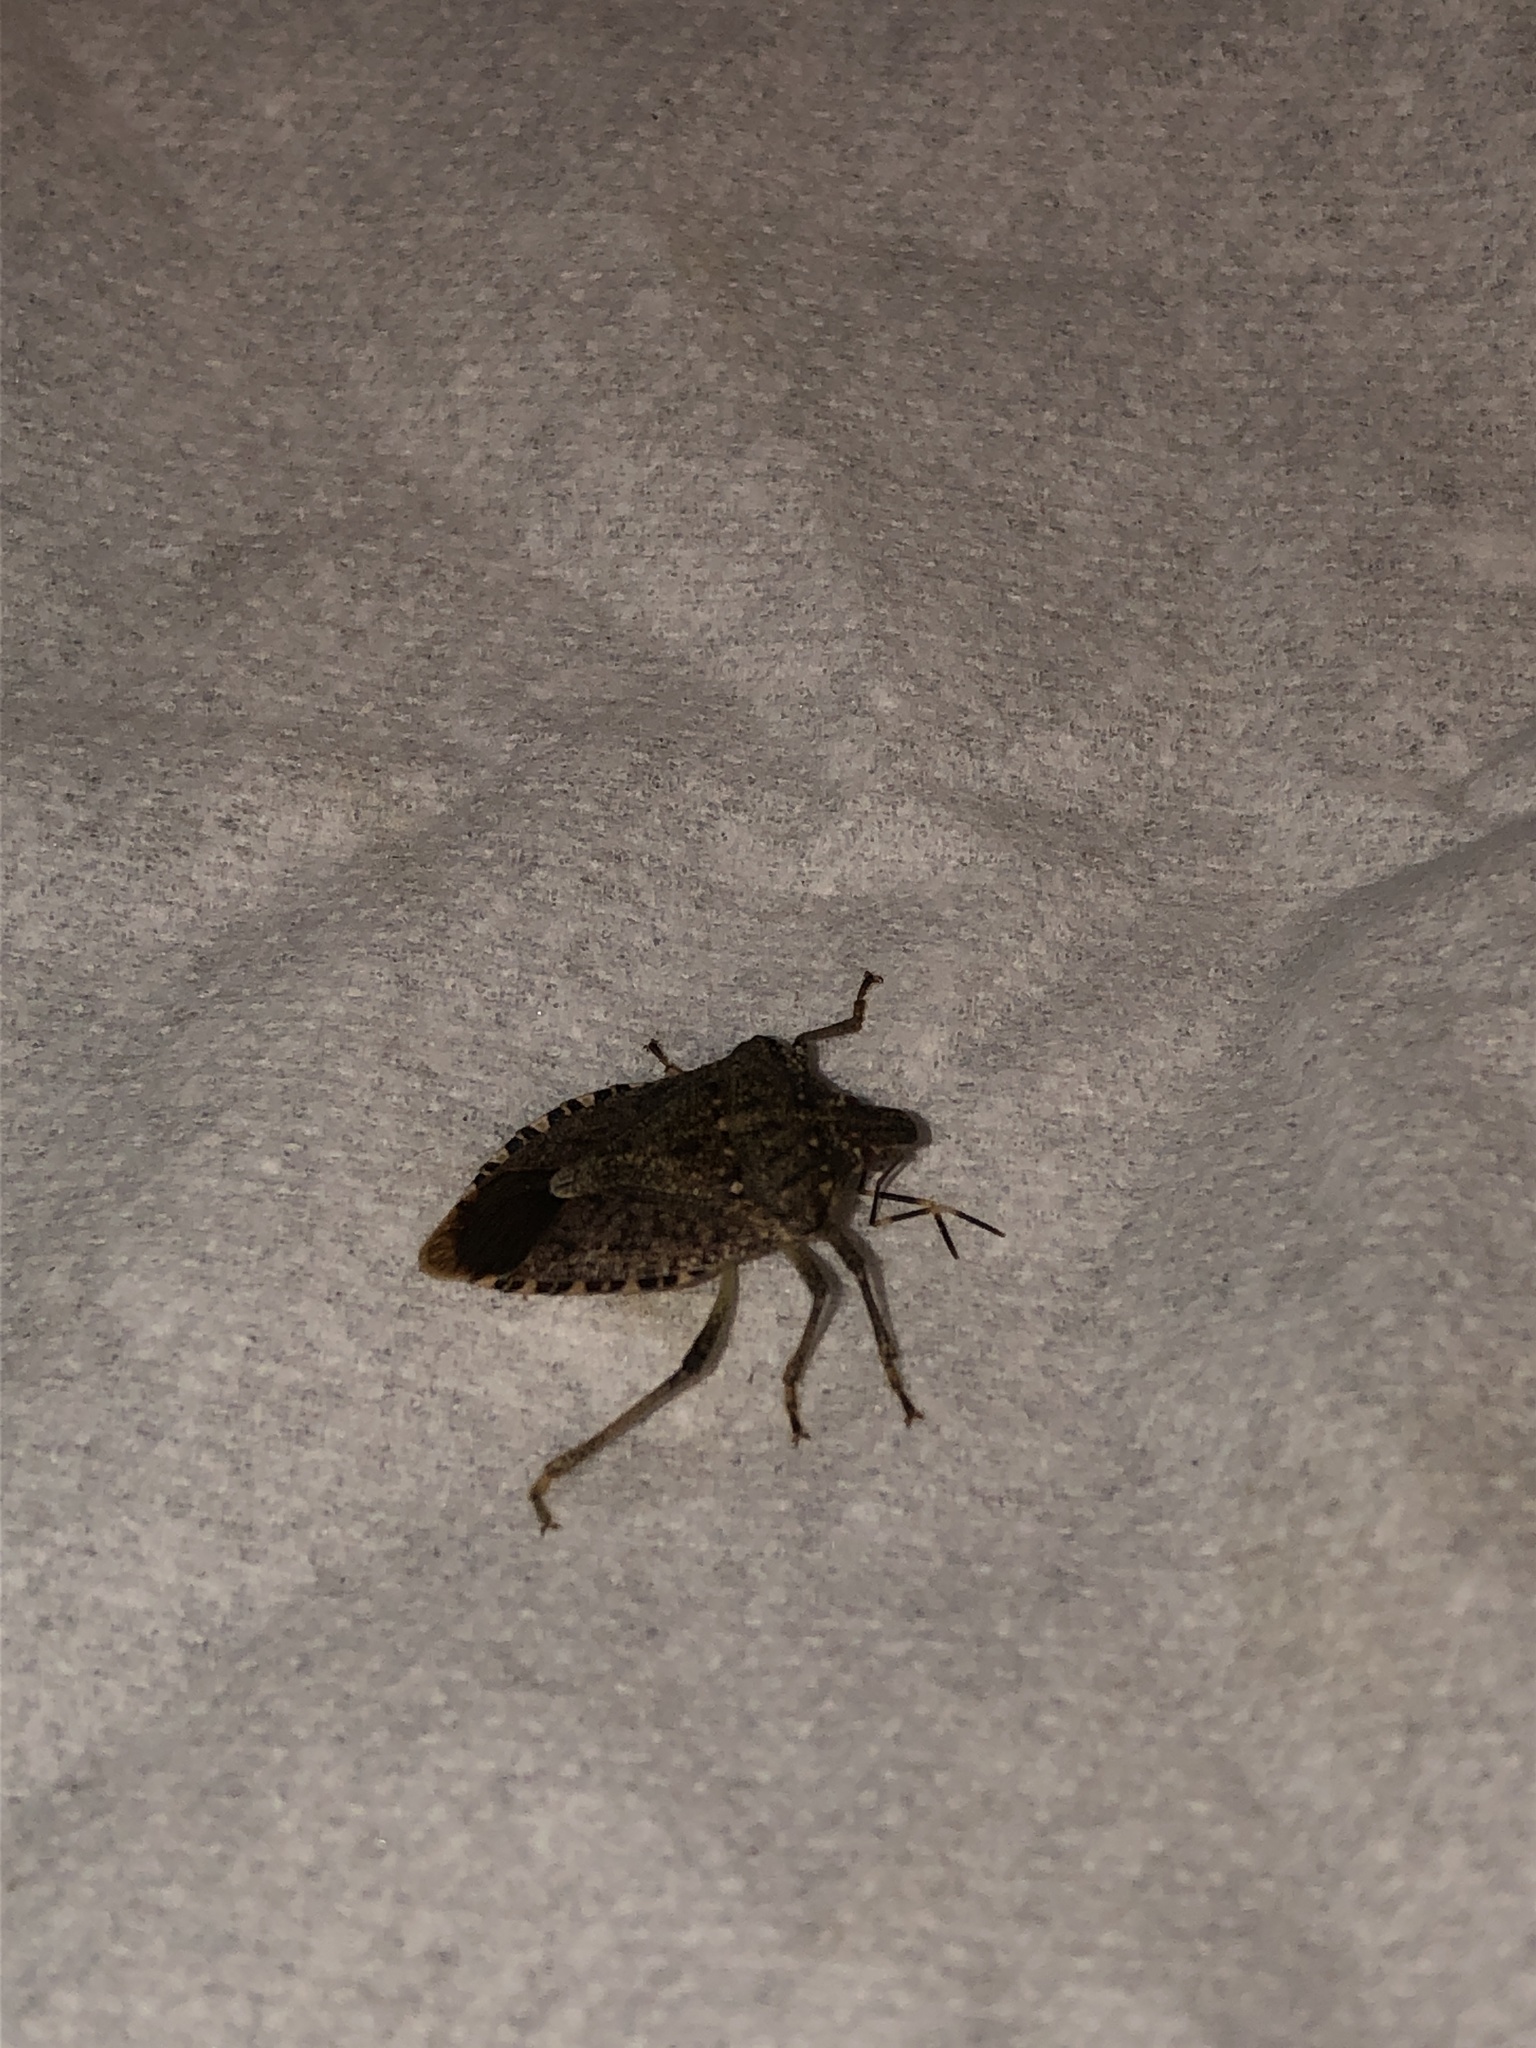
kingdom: Animalia
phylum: Arthropoda
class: Insecta
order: Hemiptera
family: Pentatomidae
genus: Halyomorpha
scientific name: Halyomorpha halys
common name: Brown marmorated stink bug
